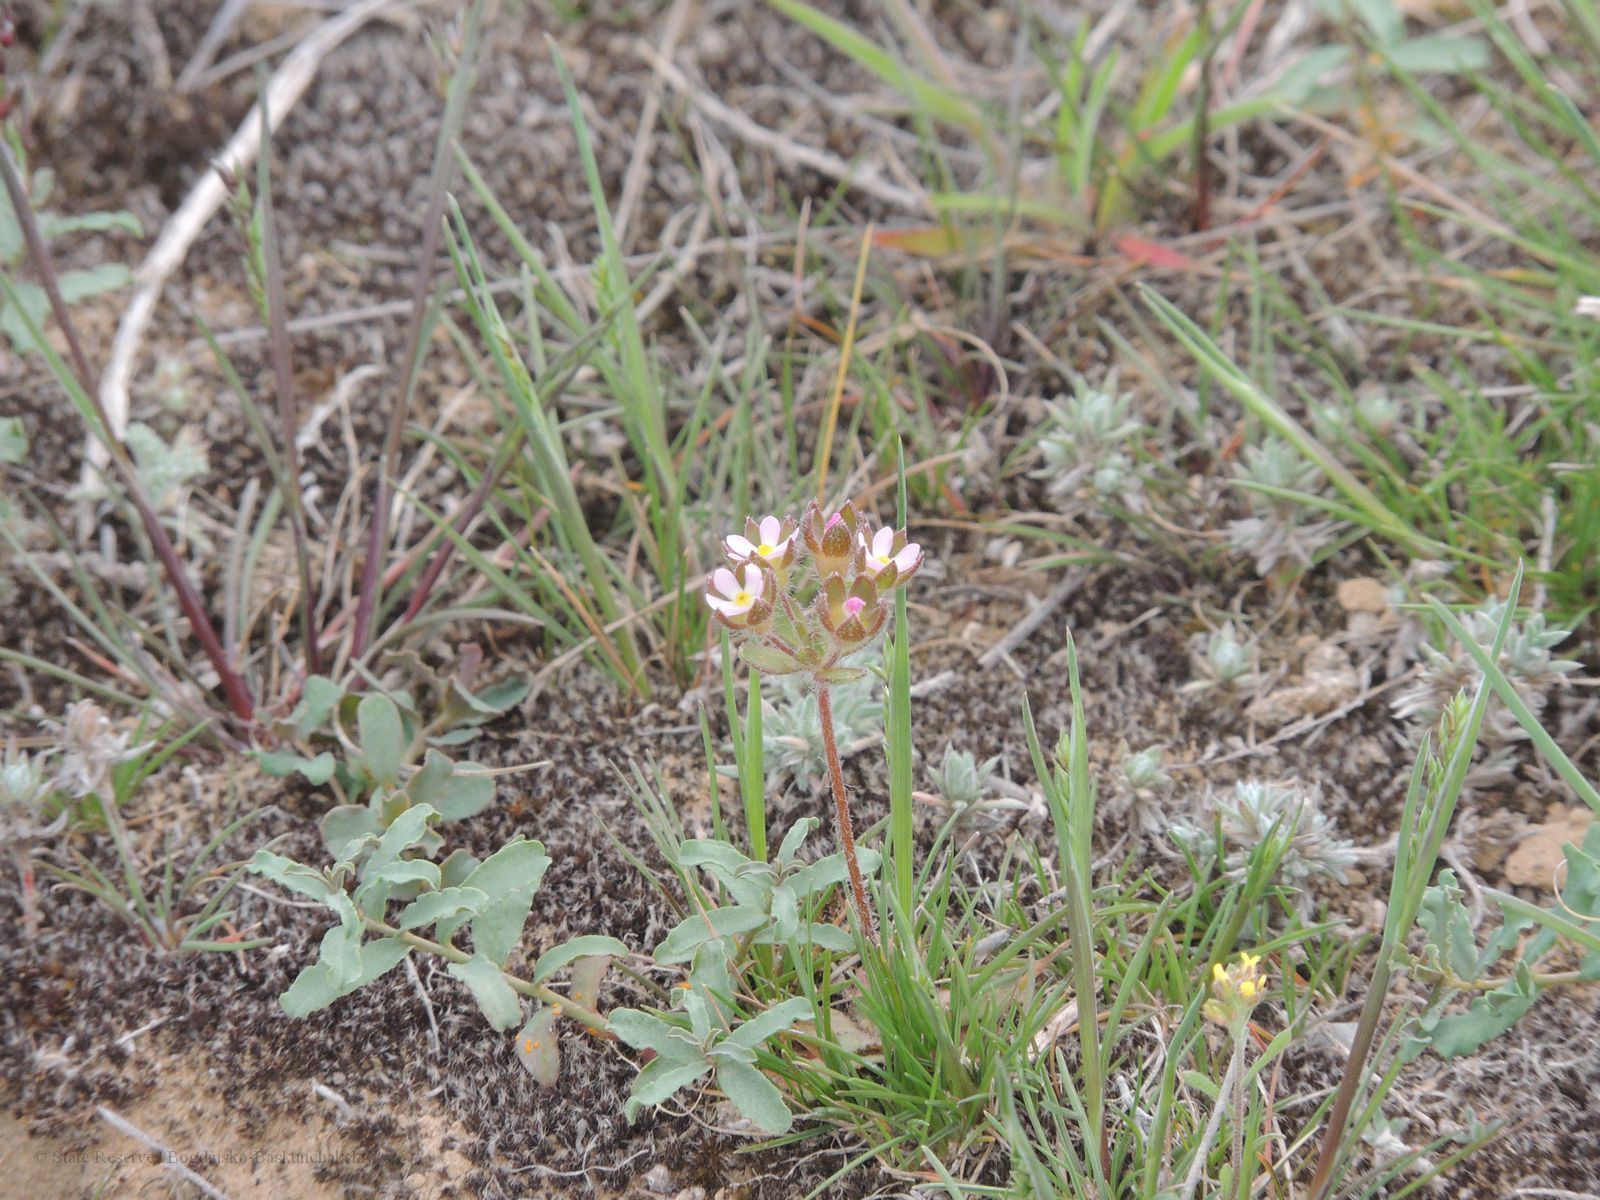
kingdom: Plantae
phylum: Tracheophyta
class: Magnoliopsida
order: Ericales
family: Primulaceae
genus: Androsace
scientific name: Androsace maxima
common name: Annual androsace
